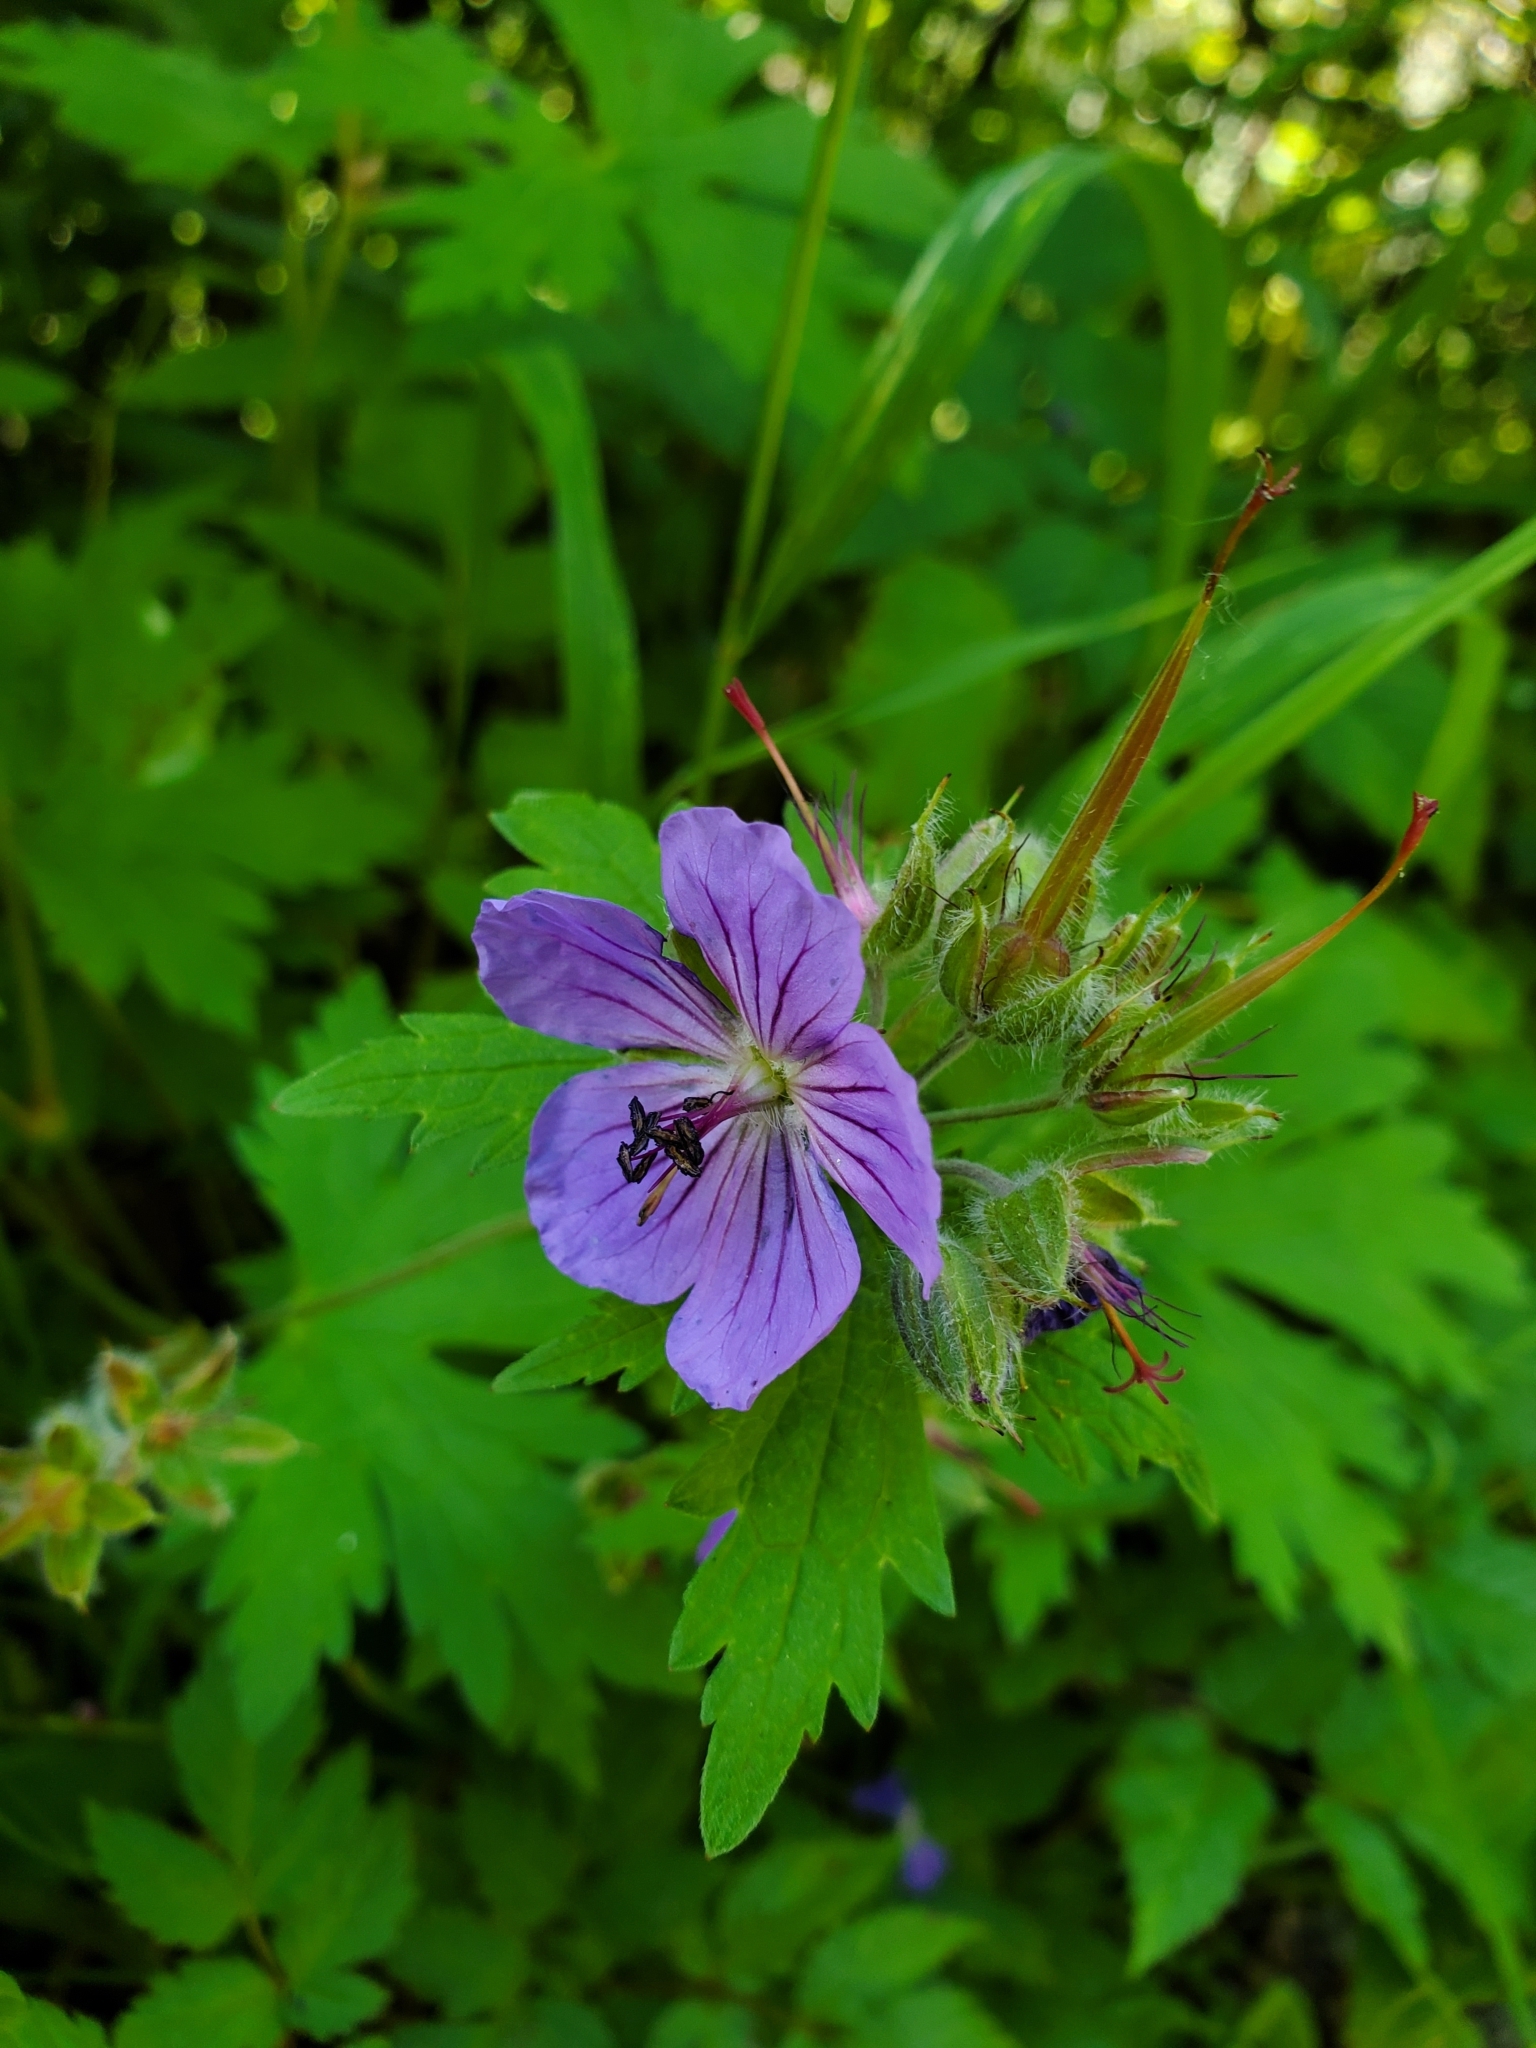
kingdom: Plantae
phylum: Tracheophyta
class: Magnoliopsida
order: Geraniales
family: Geraniaceae
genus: Geranium
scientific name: Geranium erianthum
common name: Northern crane's-bill
